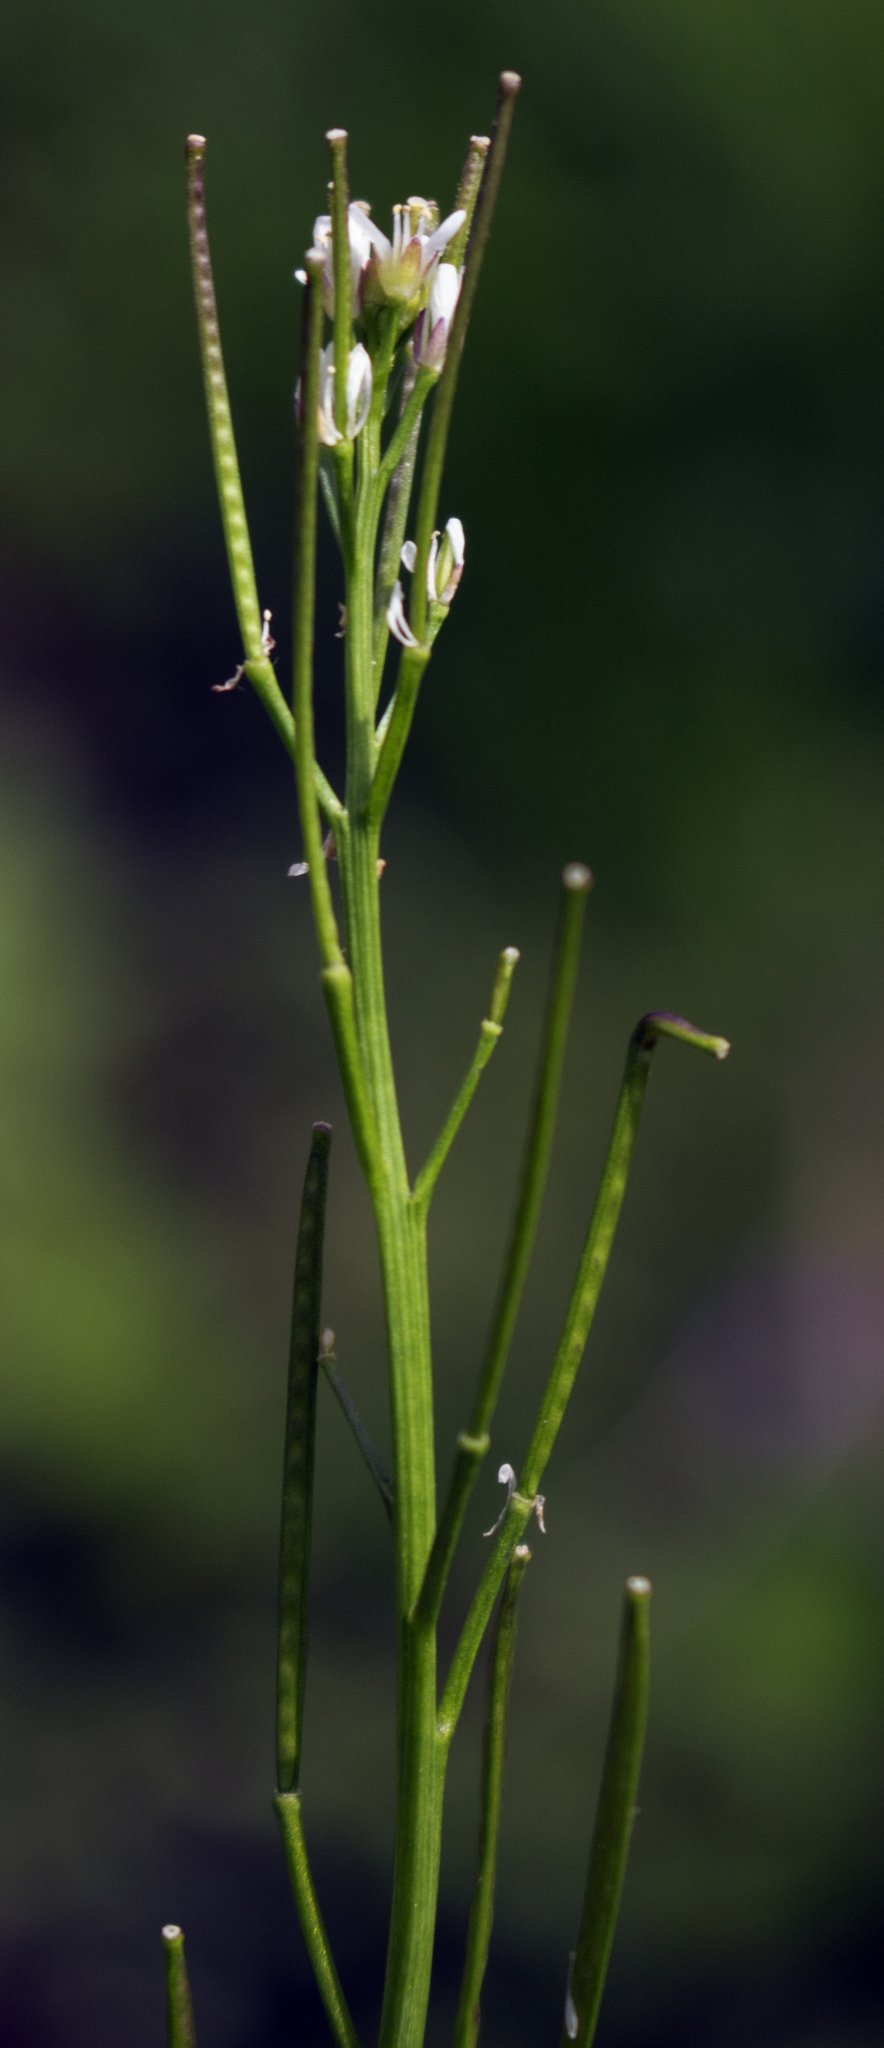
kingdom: Plantae
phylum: Tracheophyta
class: Magnoliopsida
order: Brassicales
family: Brassicaceae
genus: Cardamine
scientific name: Cardamine pensylvanica
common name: Pennsylvania bittercress
